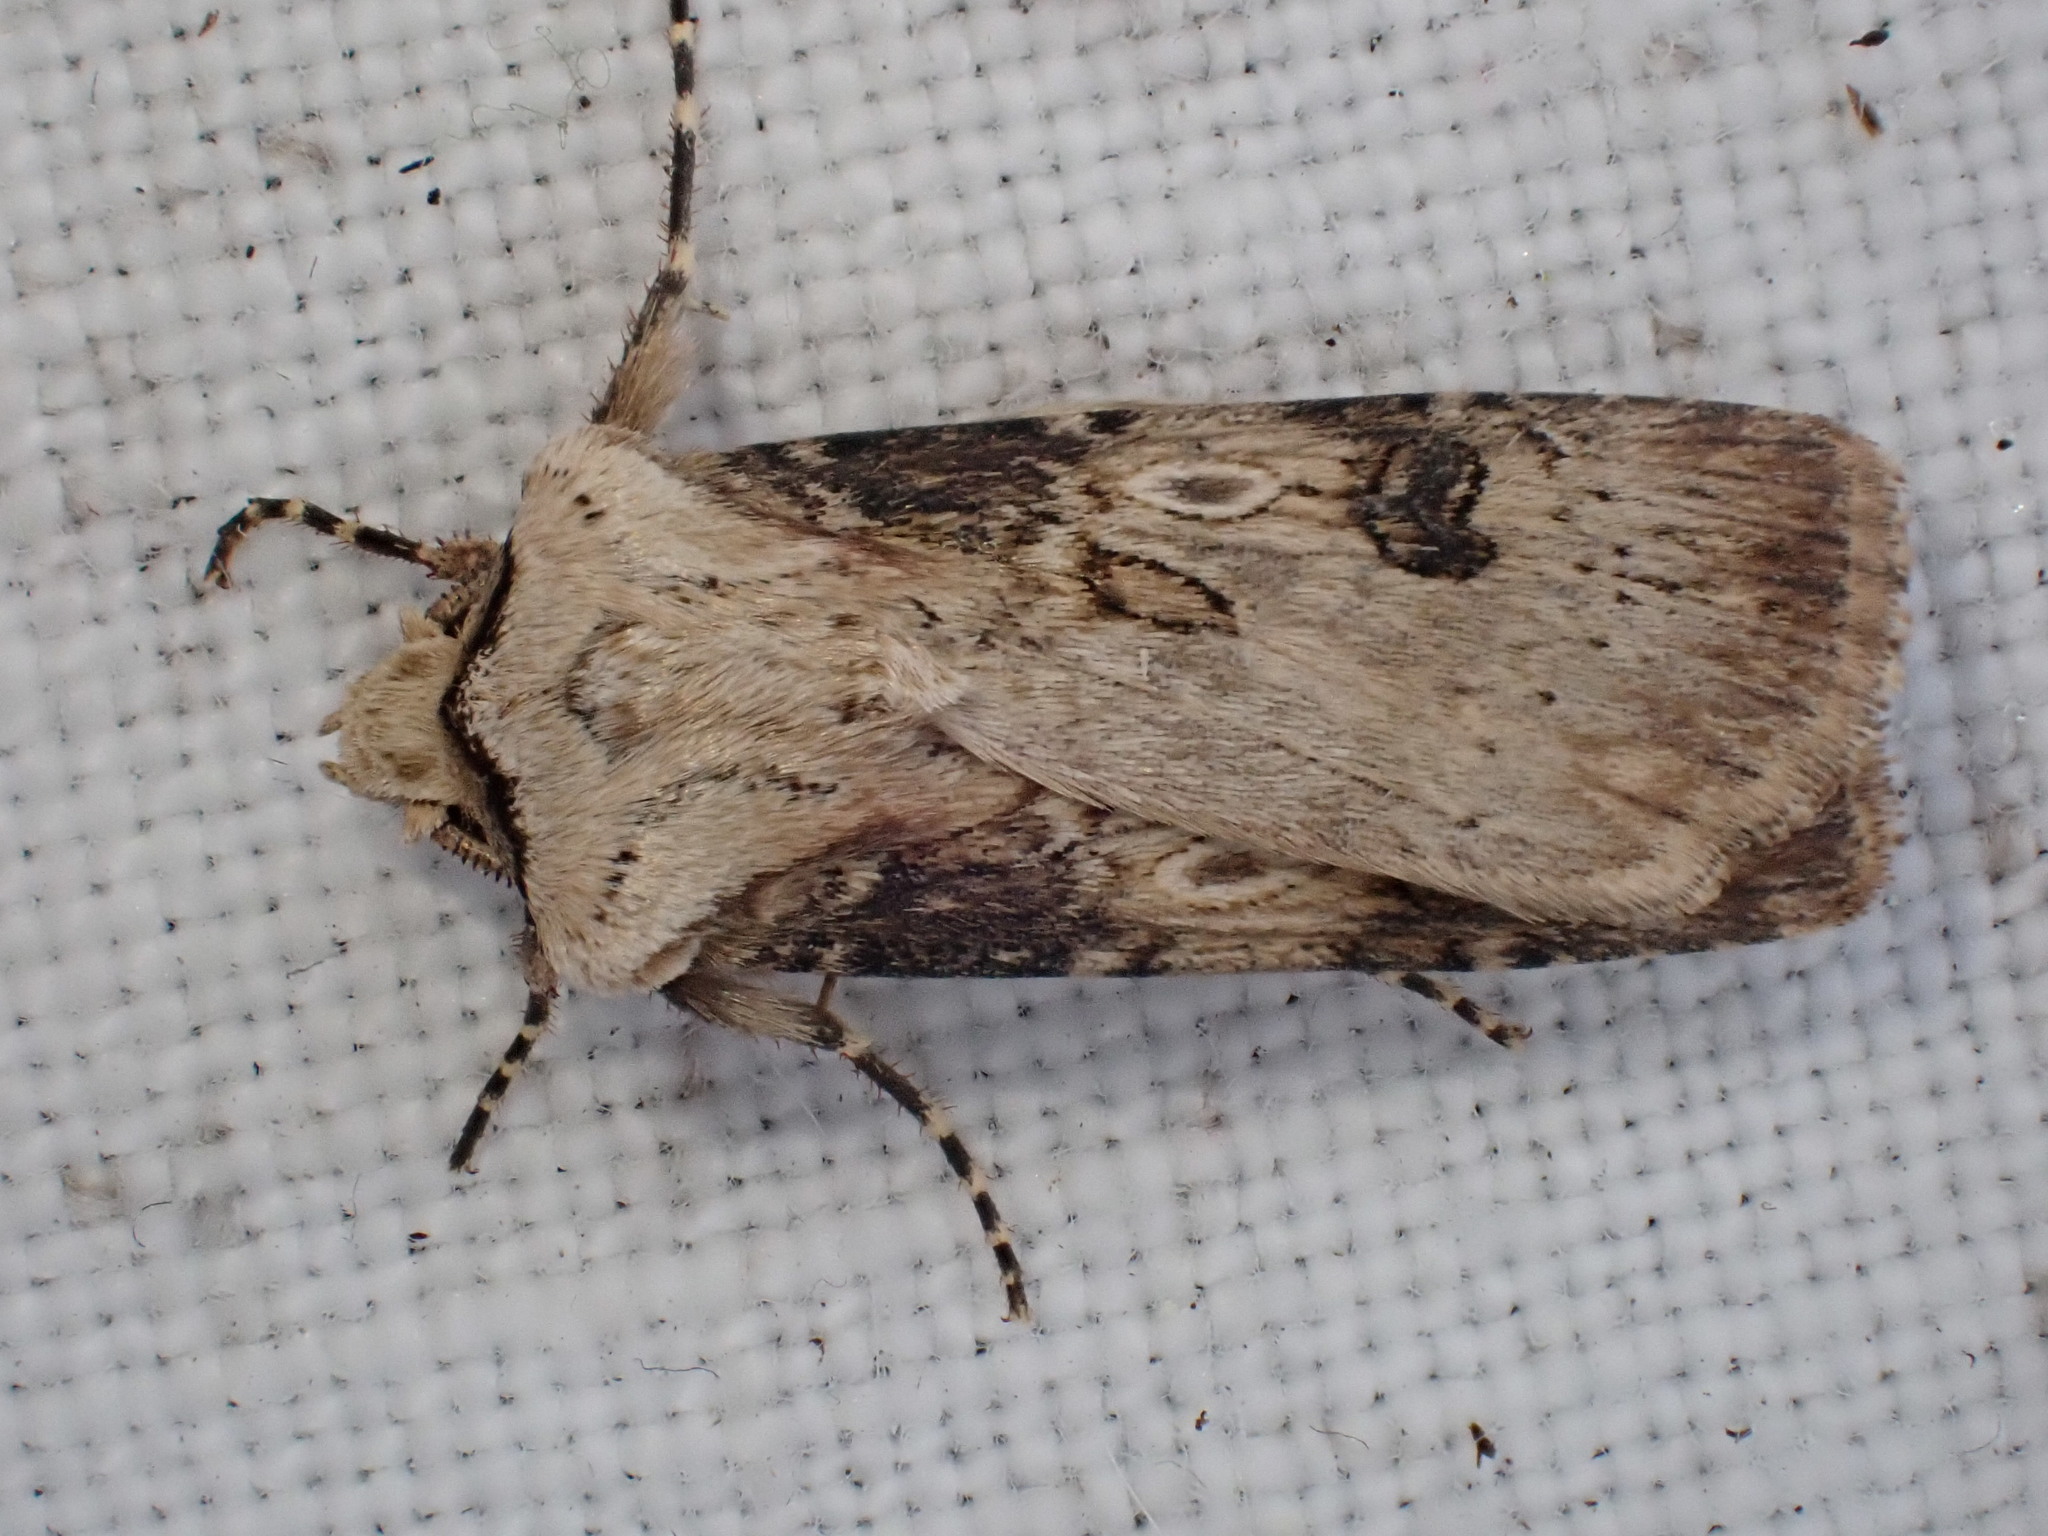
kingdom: Animalia
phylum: Arthropoda
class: Insecta
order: Lepidoptera
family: Noctuidae
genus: Agrotis
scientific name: Agrotis puta
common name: Shuttle-shaped dart
